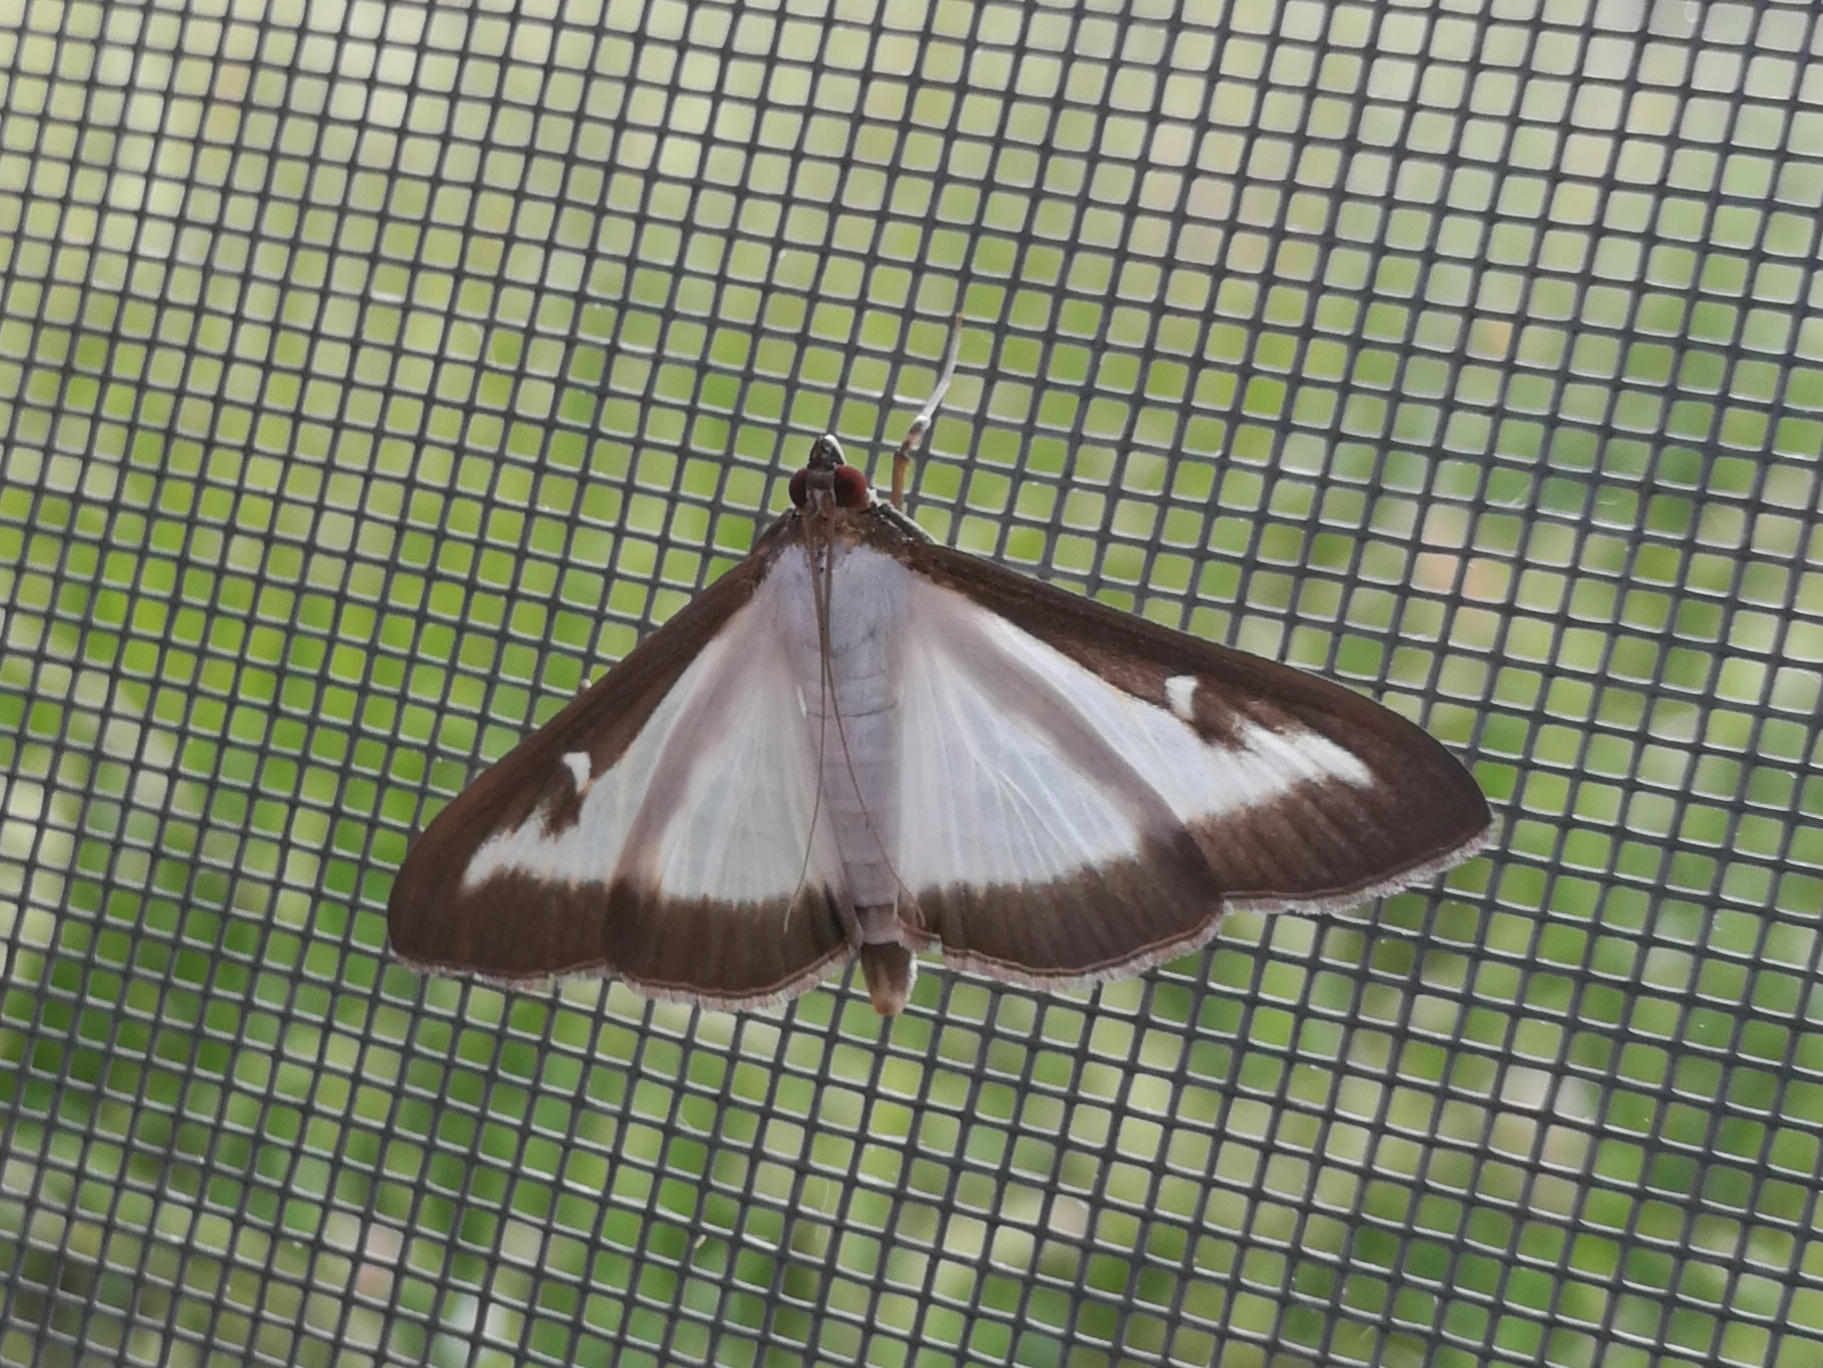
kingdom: Animalia
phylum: Arthropoda
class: Insecta
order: Lepidoptera
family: Crambidae
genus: Cydalima
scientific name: Cydalima perspectalis
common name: Box tree moth
